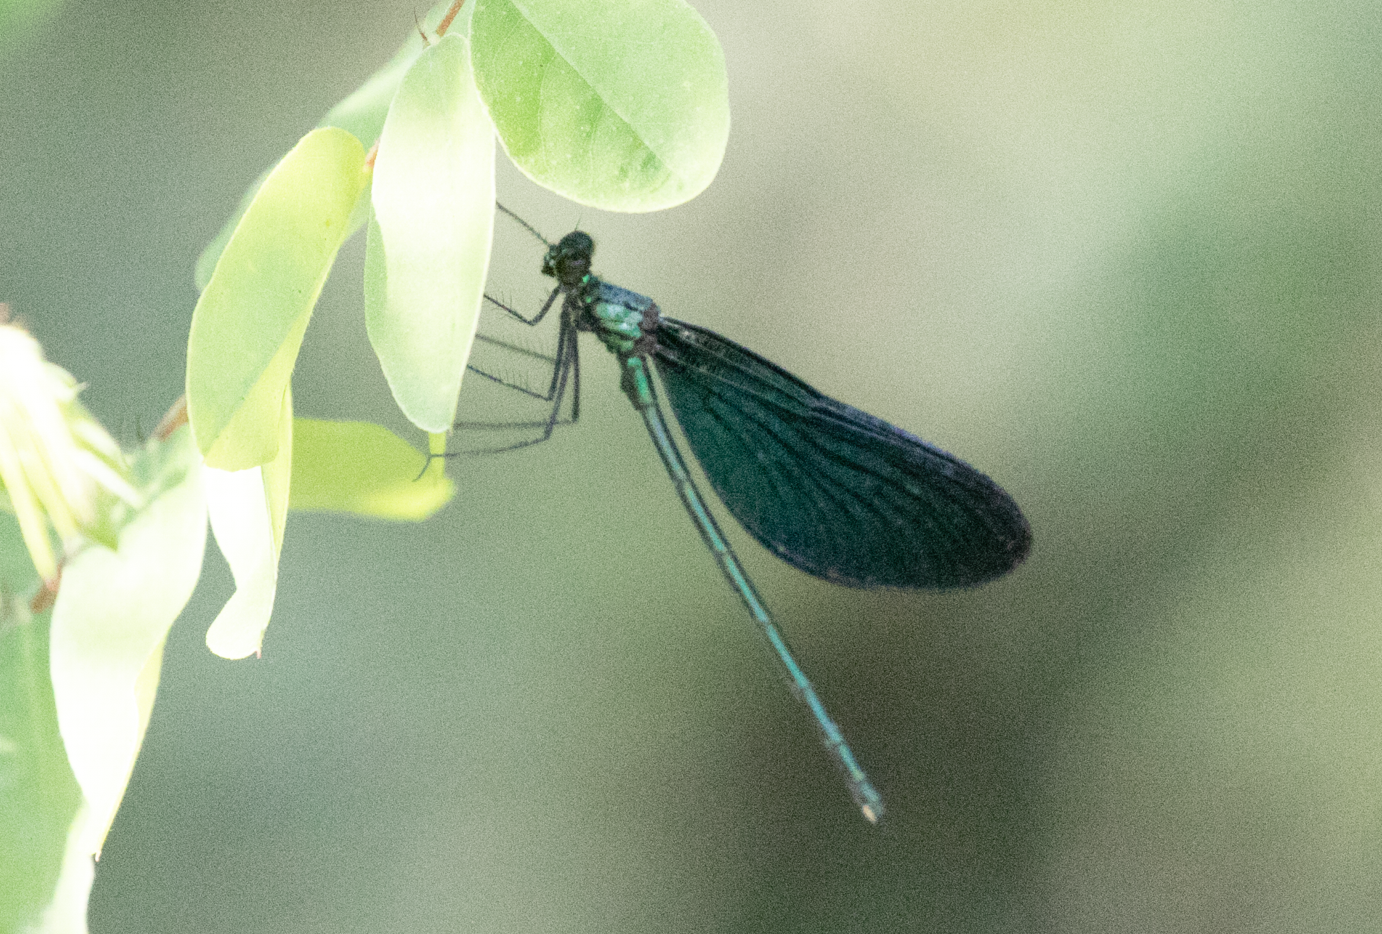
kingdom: Animalia
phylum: Arthropoda
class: Insecta
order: Odonata
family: Calopterygidae
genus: Calopteryx
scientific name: Calopteryx virgo
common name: Beautiful demoiselle
